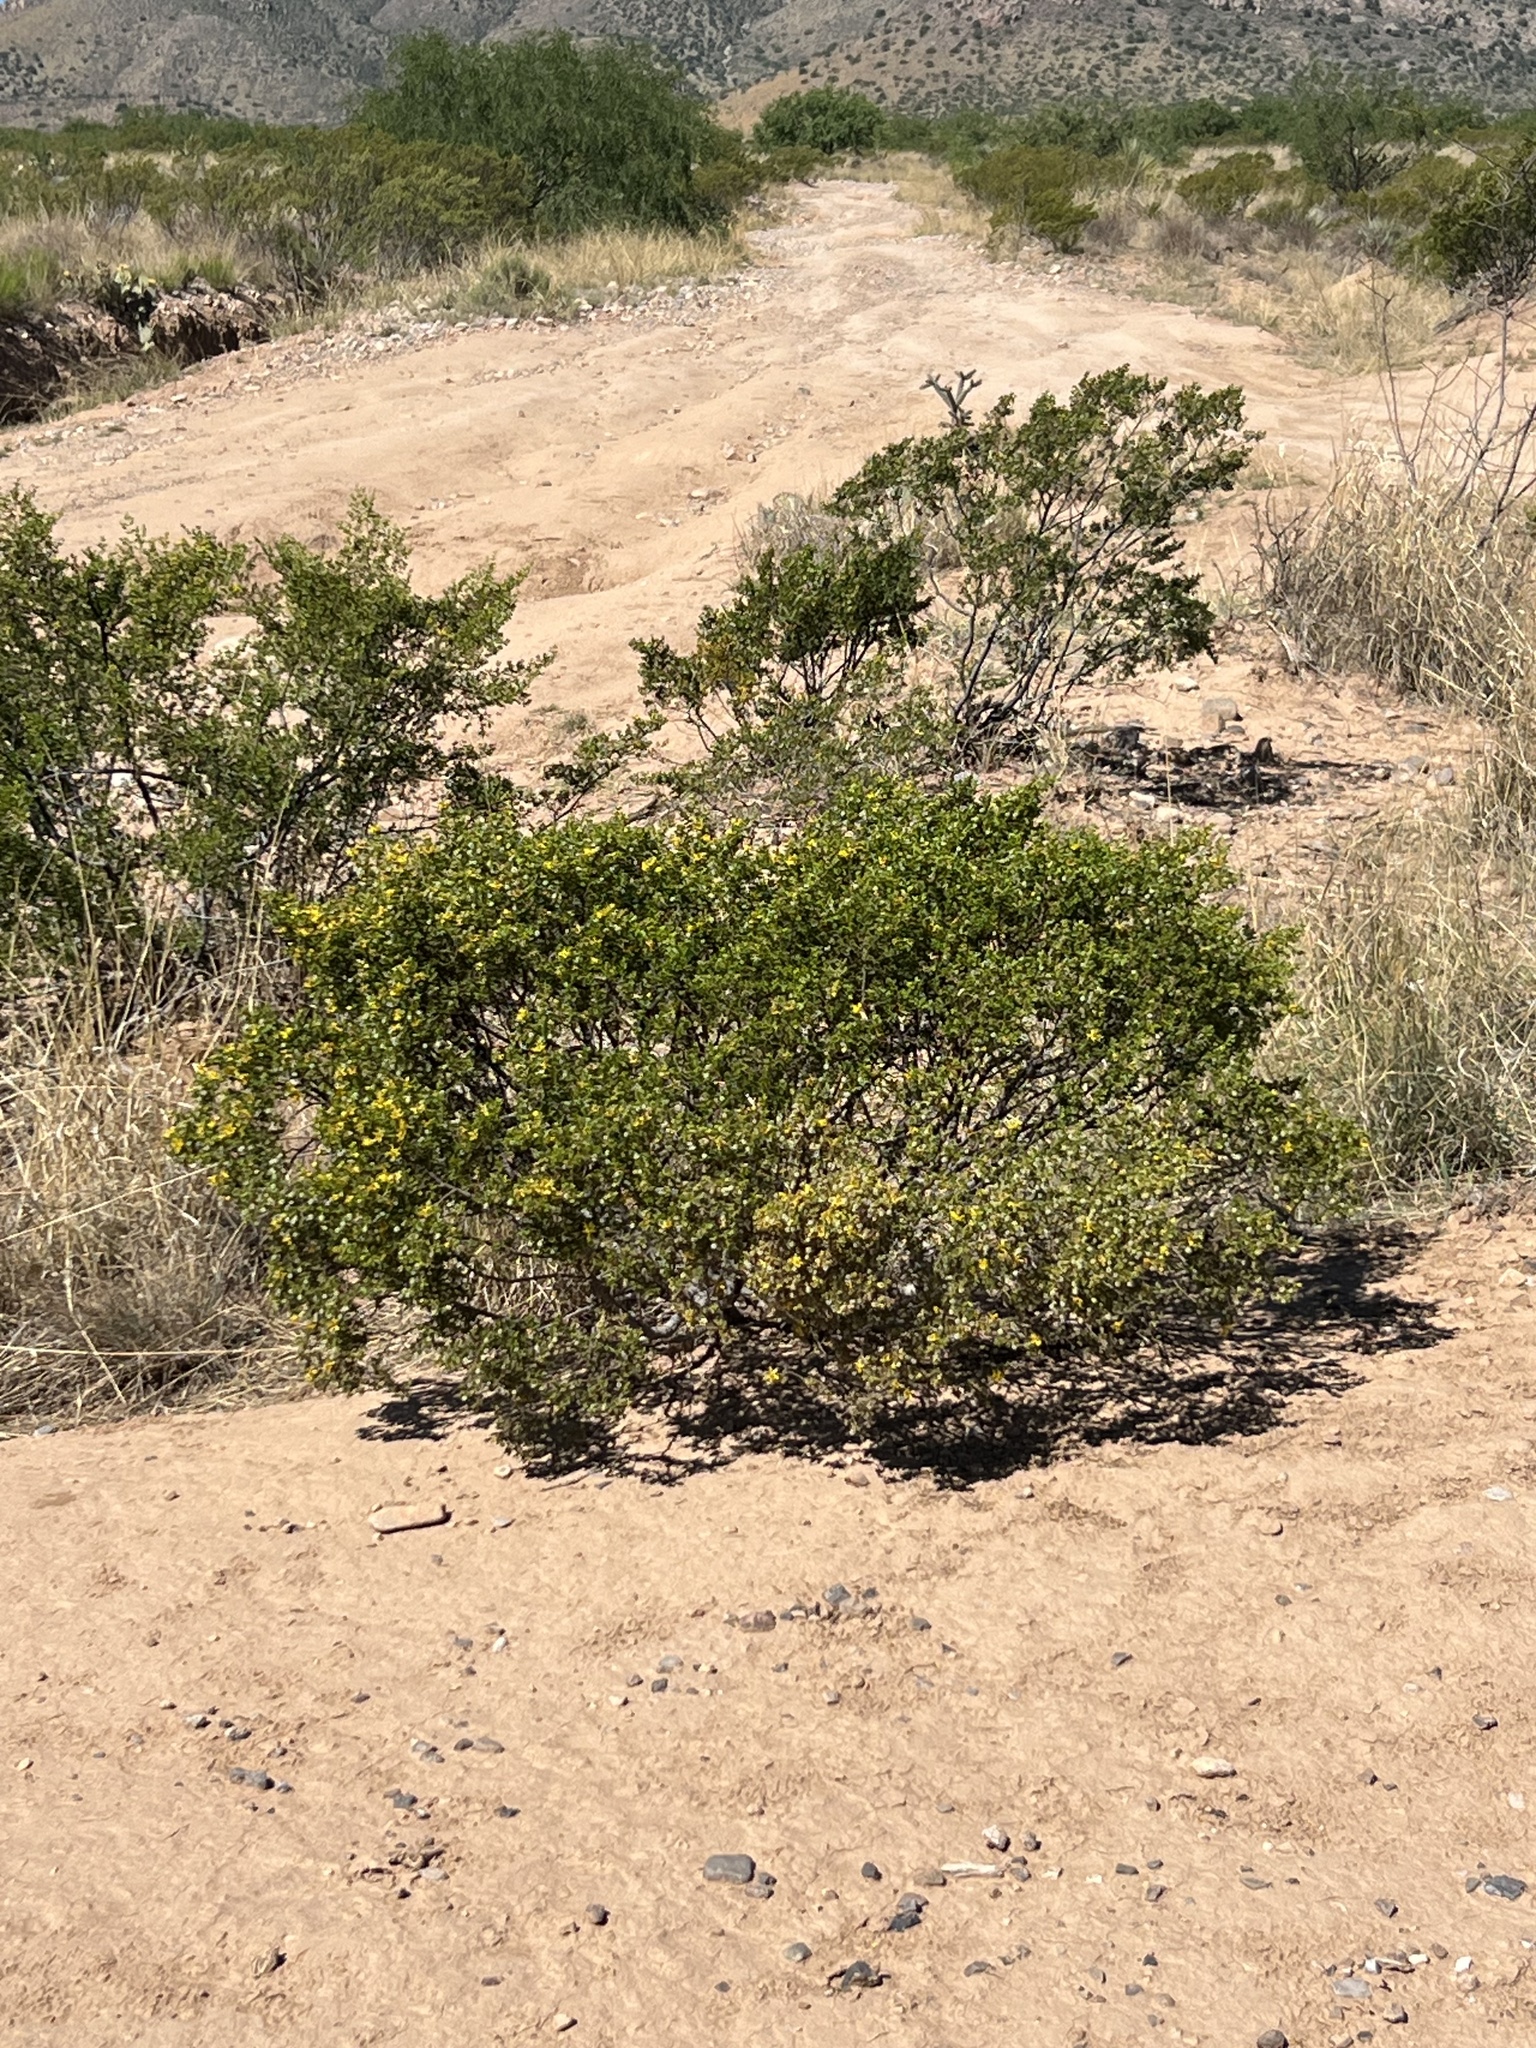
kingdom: Plantae
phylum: Tracheophyta
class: Magnoliopsida
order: Zygophyllales
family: Zygophyllaceae
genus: Larrea
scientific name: Larrea tridentata
